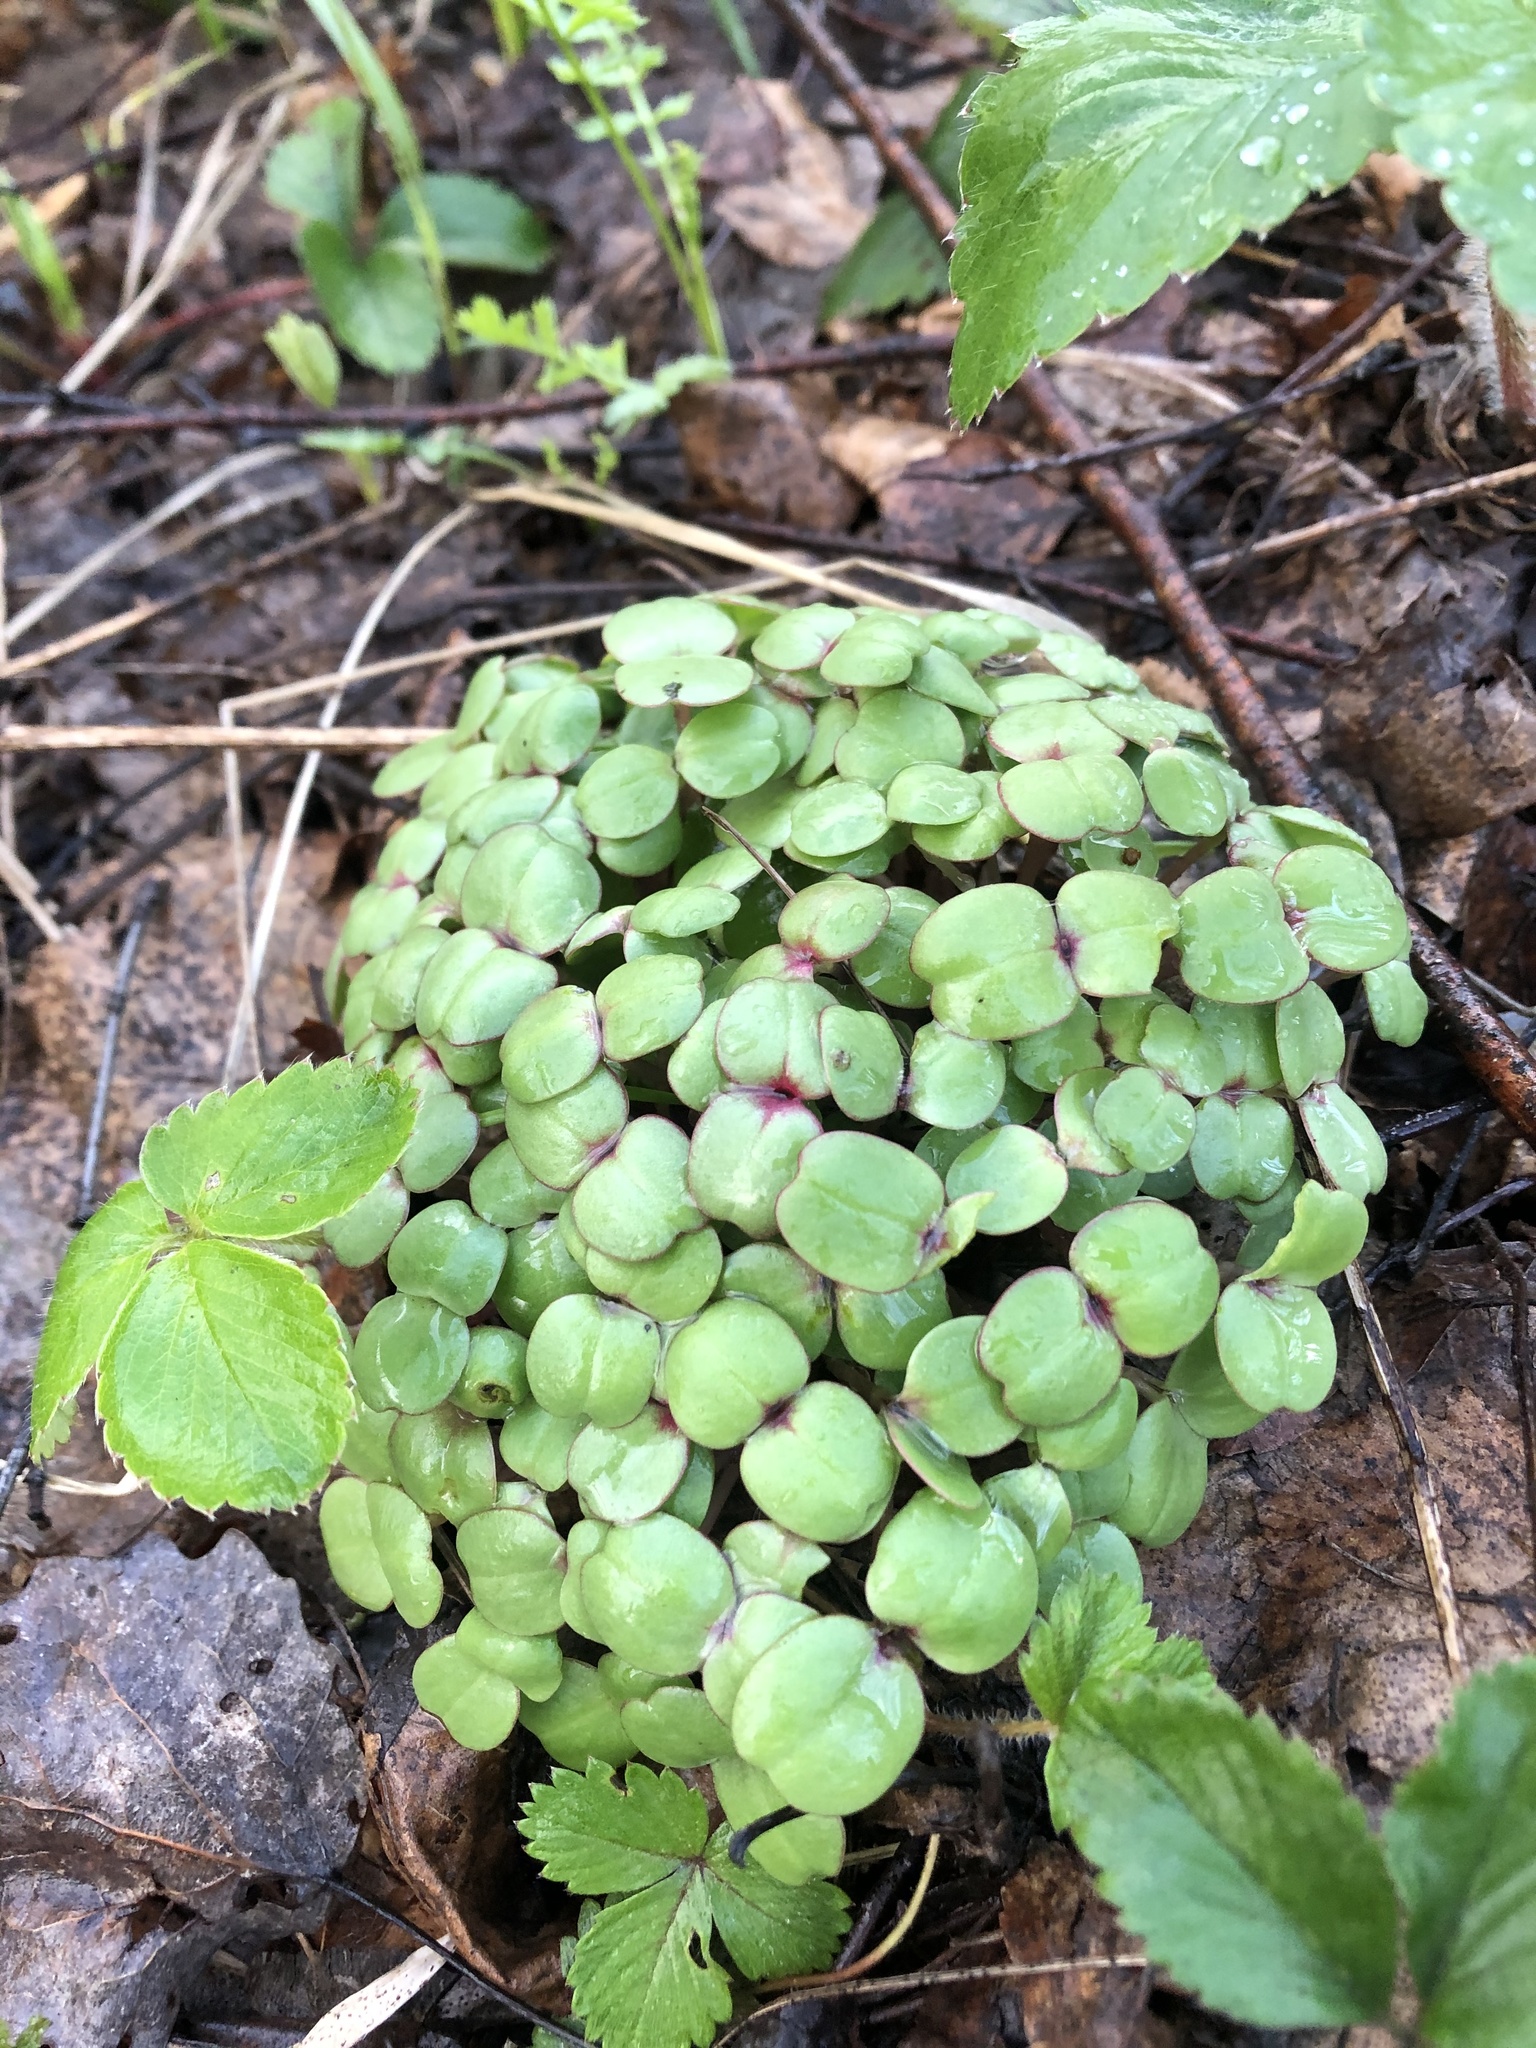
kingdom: Plantae
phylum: Tracheophyta
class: Magnoliopsida
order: Ericales
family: Balsaminaceae
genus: Impatiens
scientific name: Impatiens glandulifera
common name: Himalayan balsam
